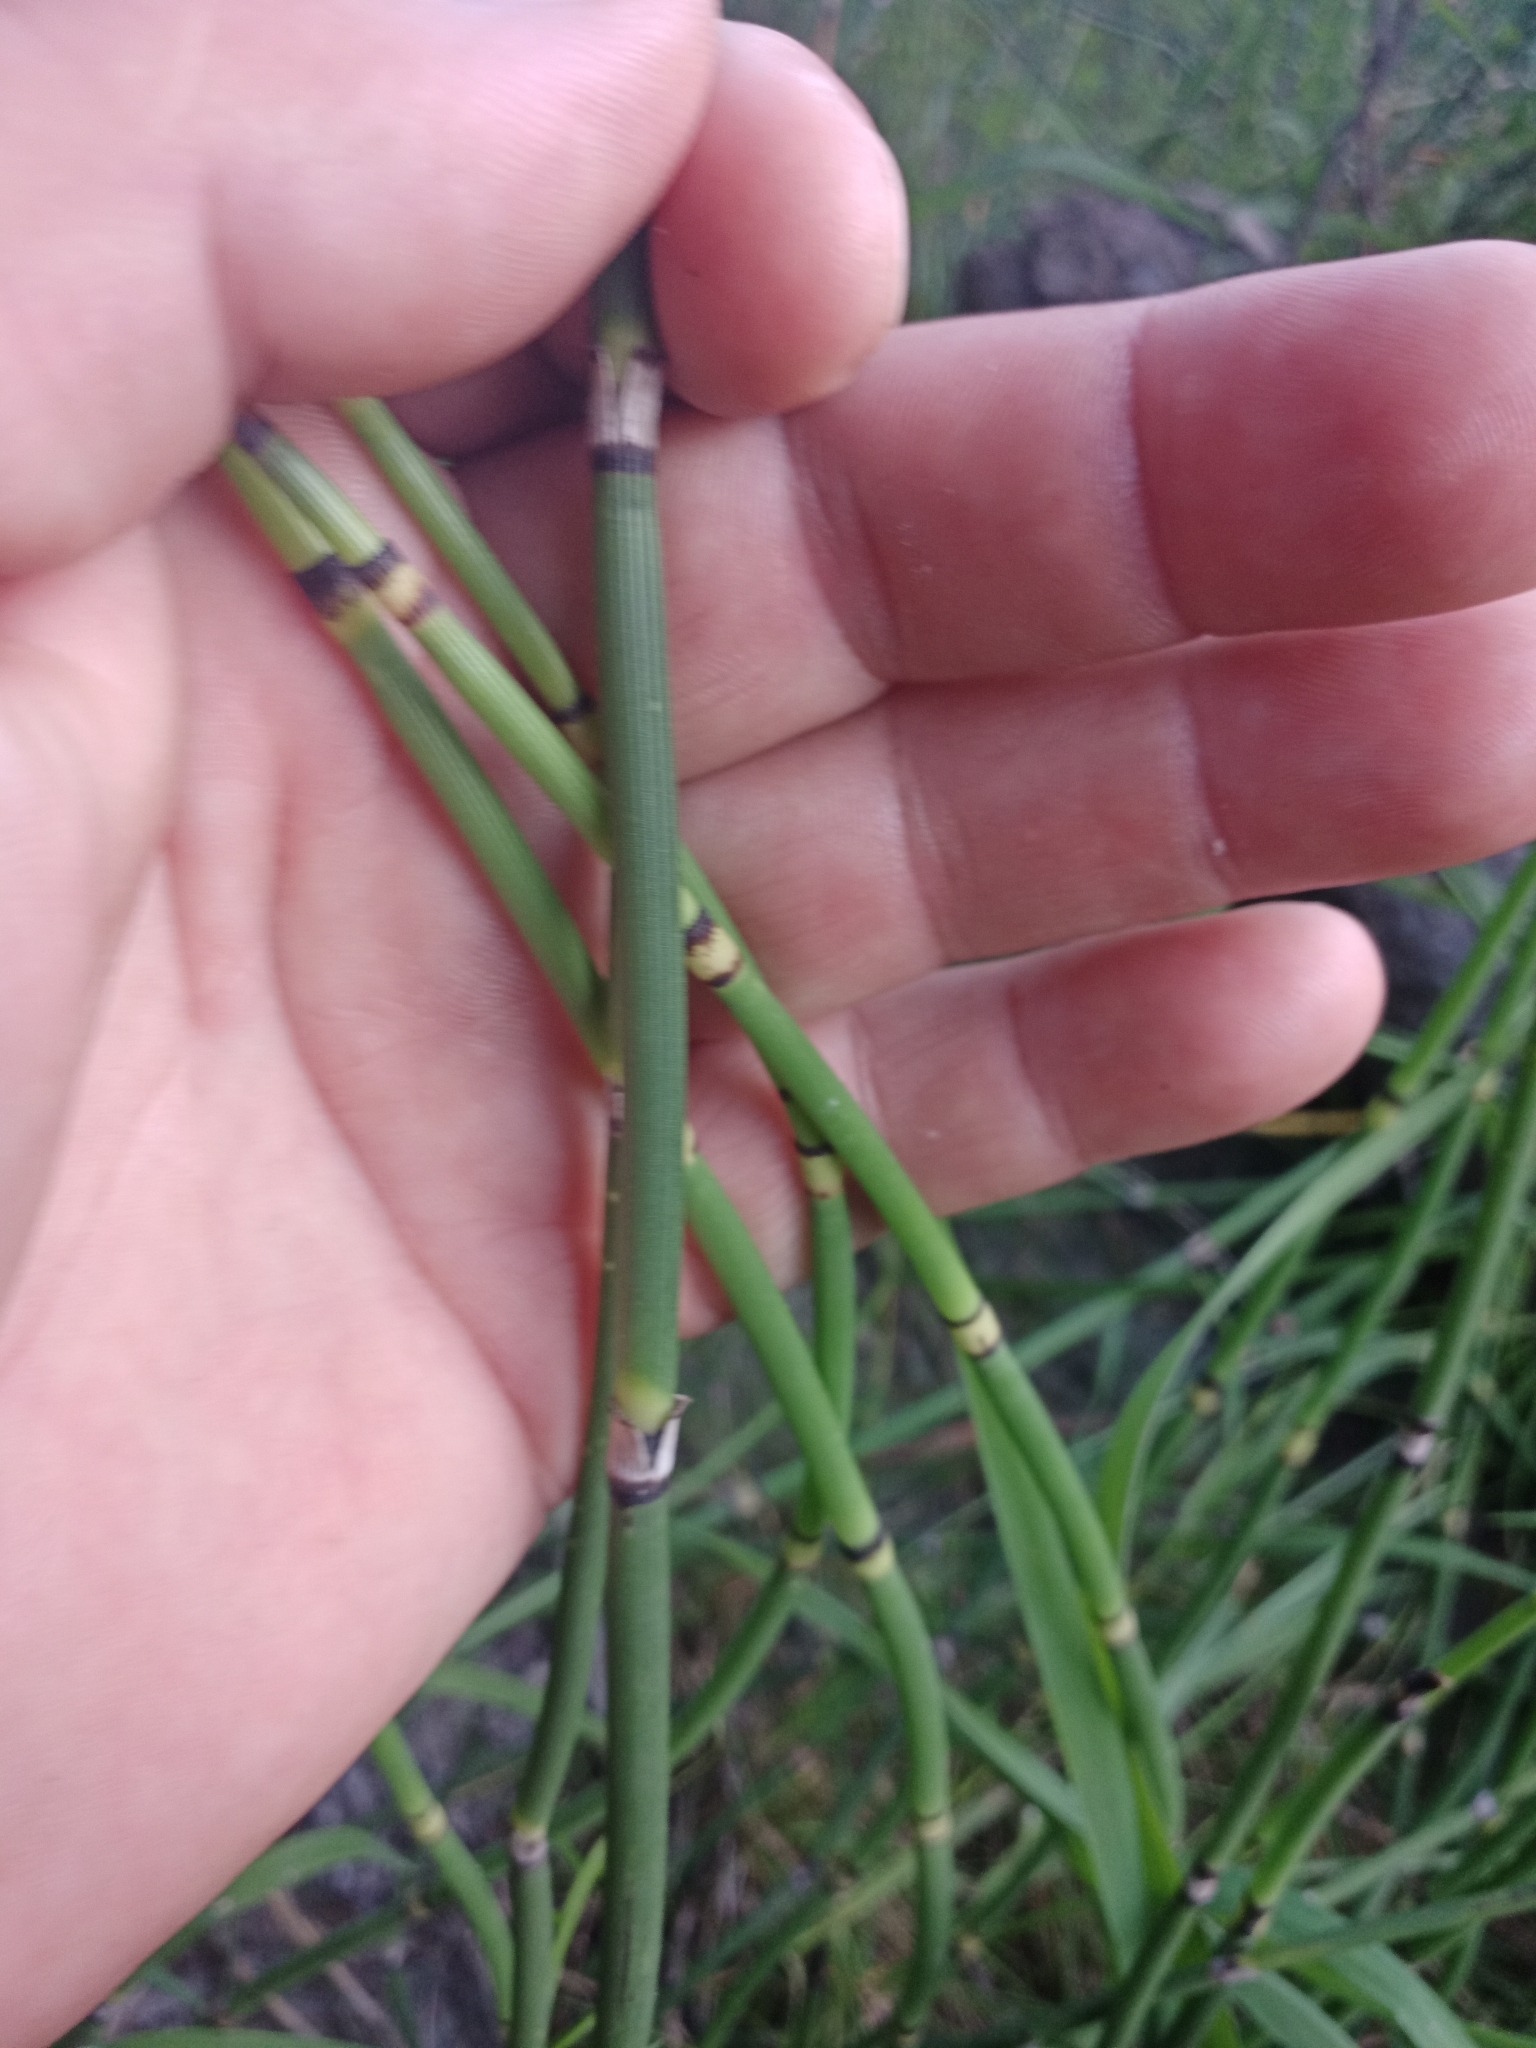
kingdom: Plantae
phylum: Tracheophyta
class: Polypodiopsida
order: Equisetales
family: Equisetaceae
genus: Equisetum
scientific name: Equisetum hyemale
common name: Rough horsetail
